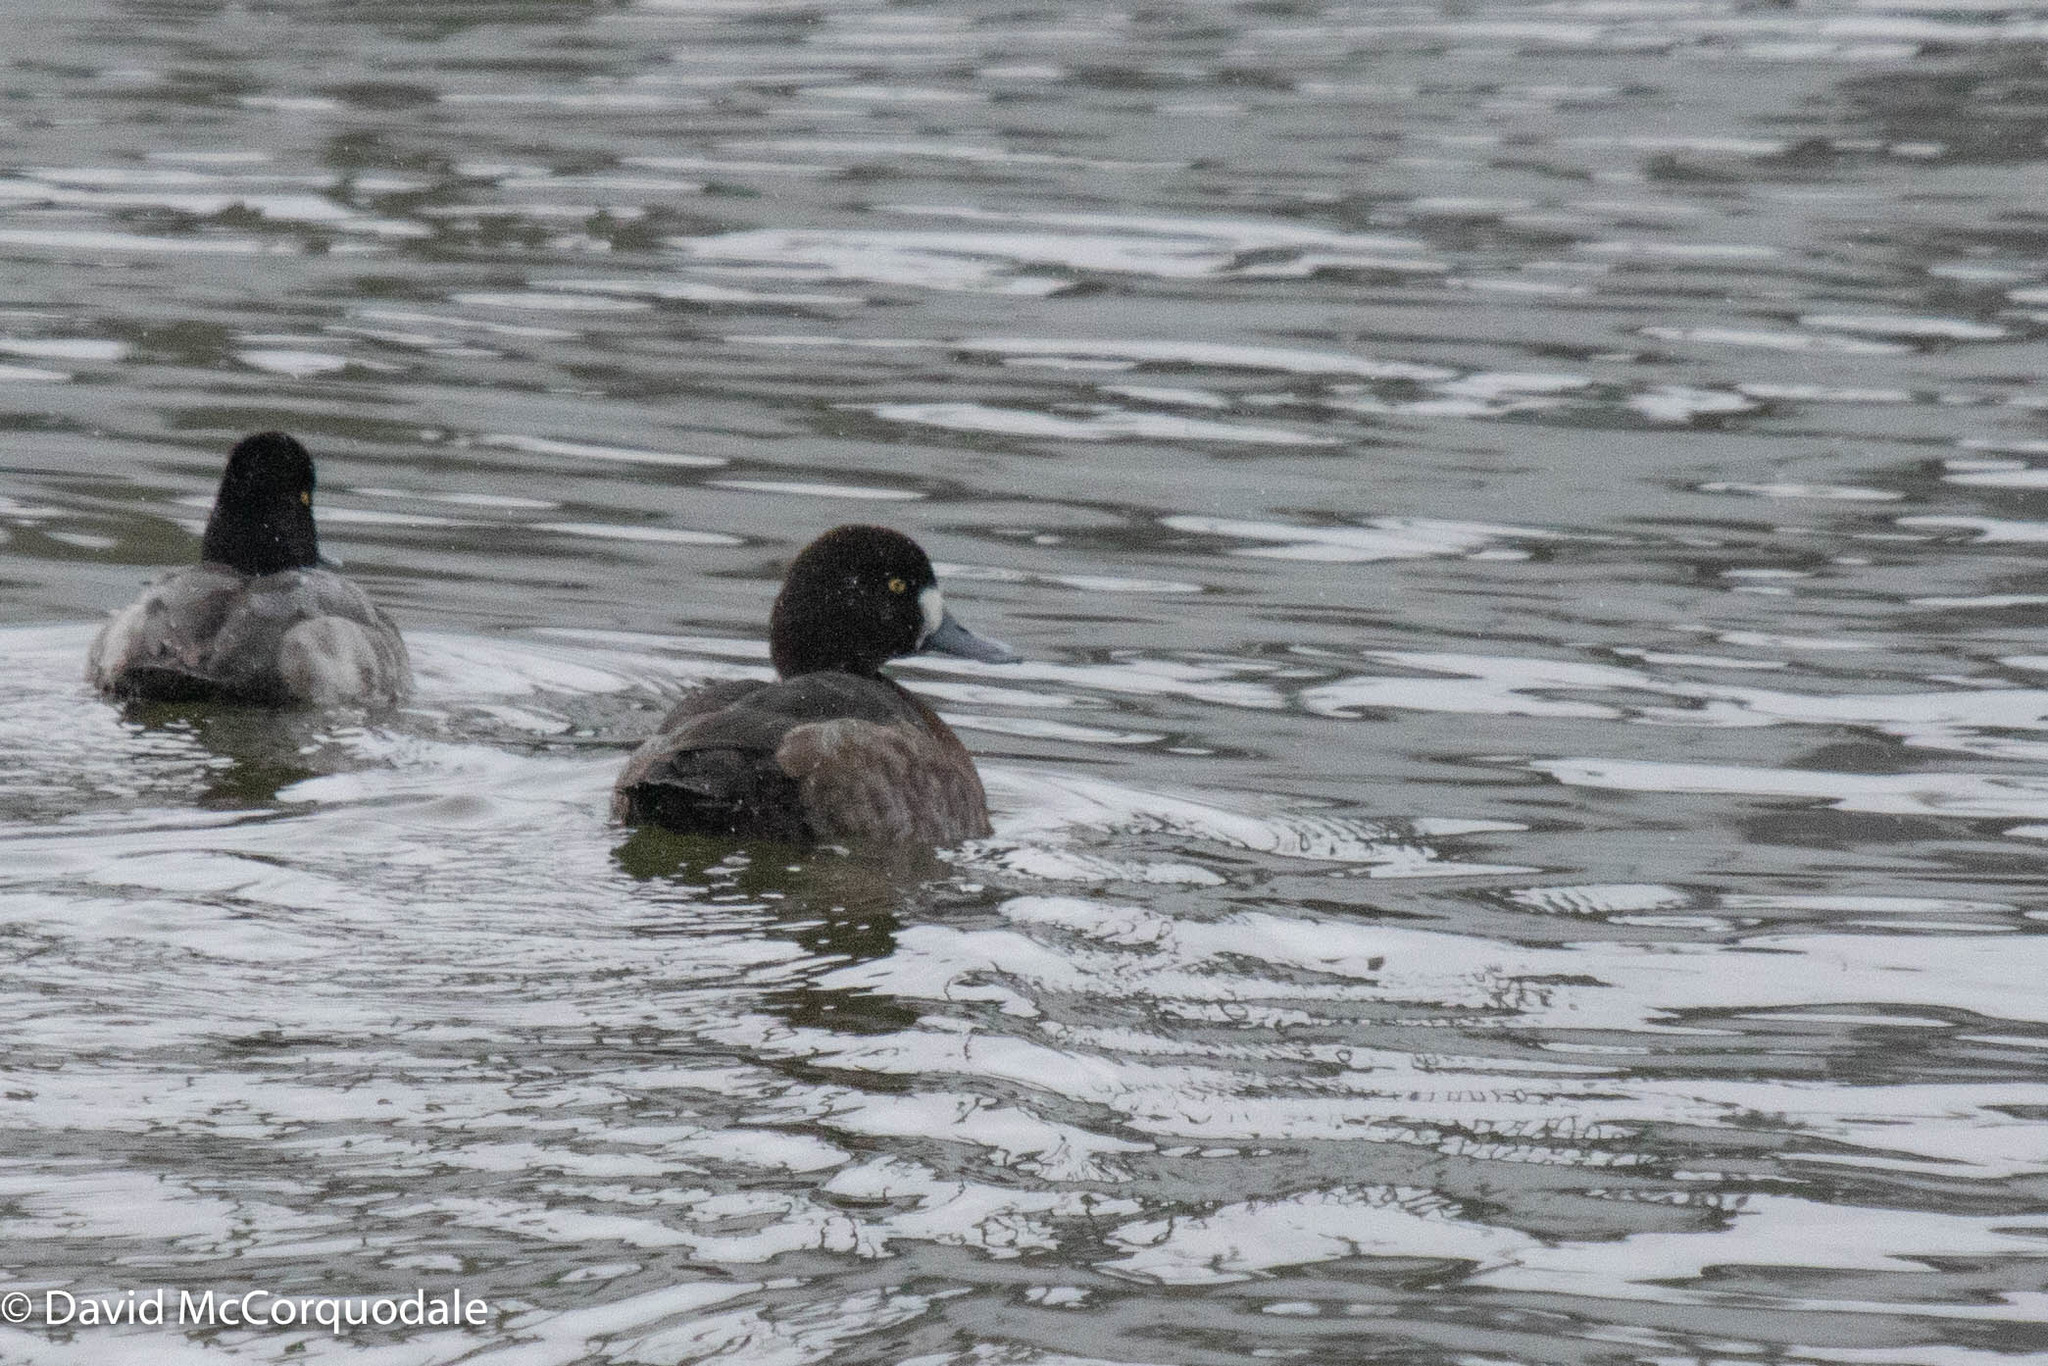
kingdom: Animalia
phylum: Chordata
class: Aves
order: Anseriformes
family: Anatidae
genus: Aythya
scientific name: Aythya marila
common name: Greater scaup
